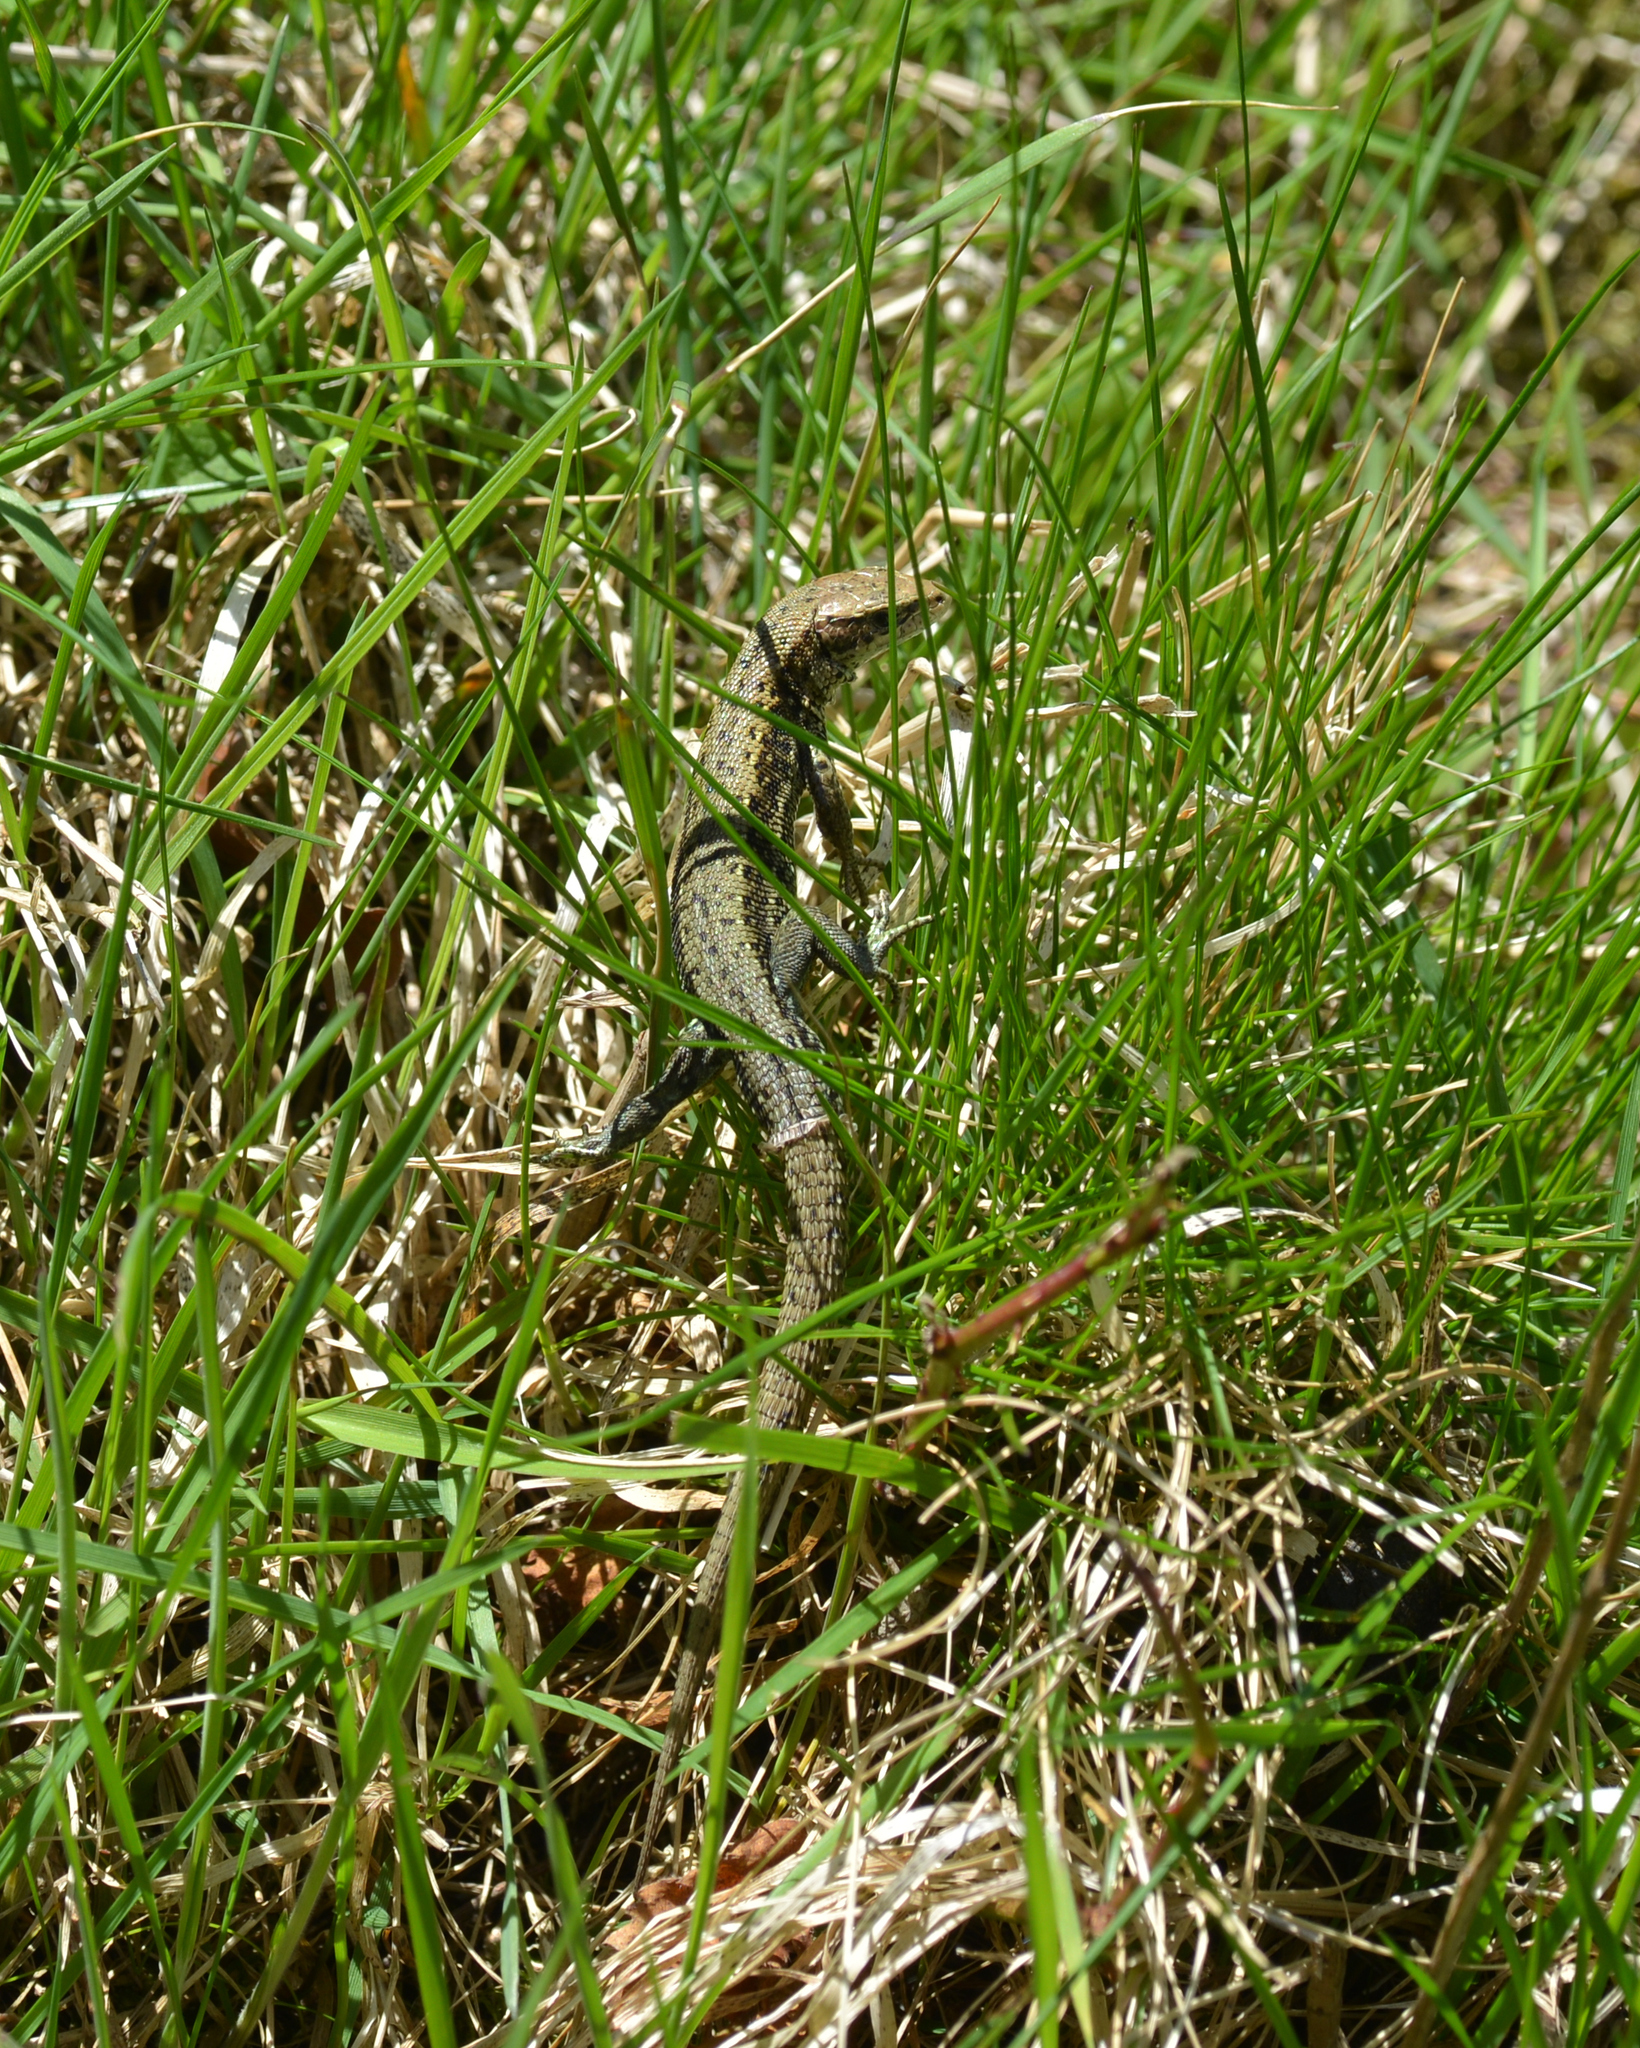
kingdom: Animalia
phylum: Chordata
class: Squamata
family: Lacertidae
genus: Zootoca
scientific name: Zootoca vivipara
